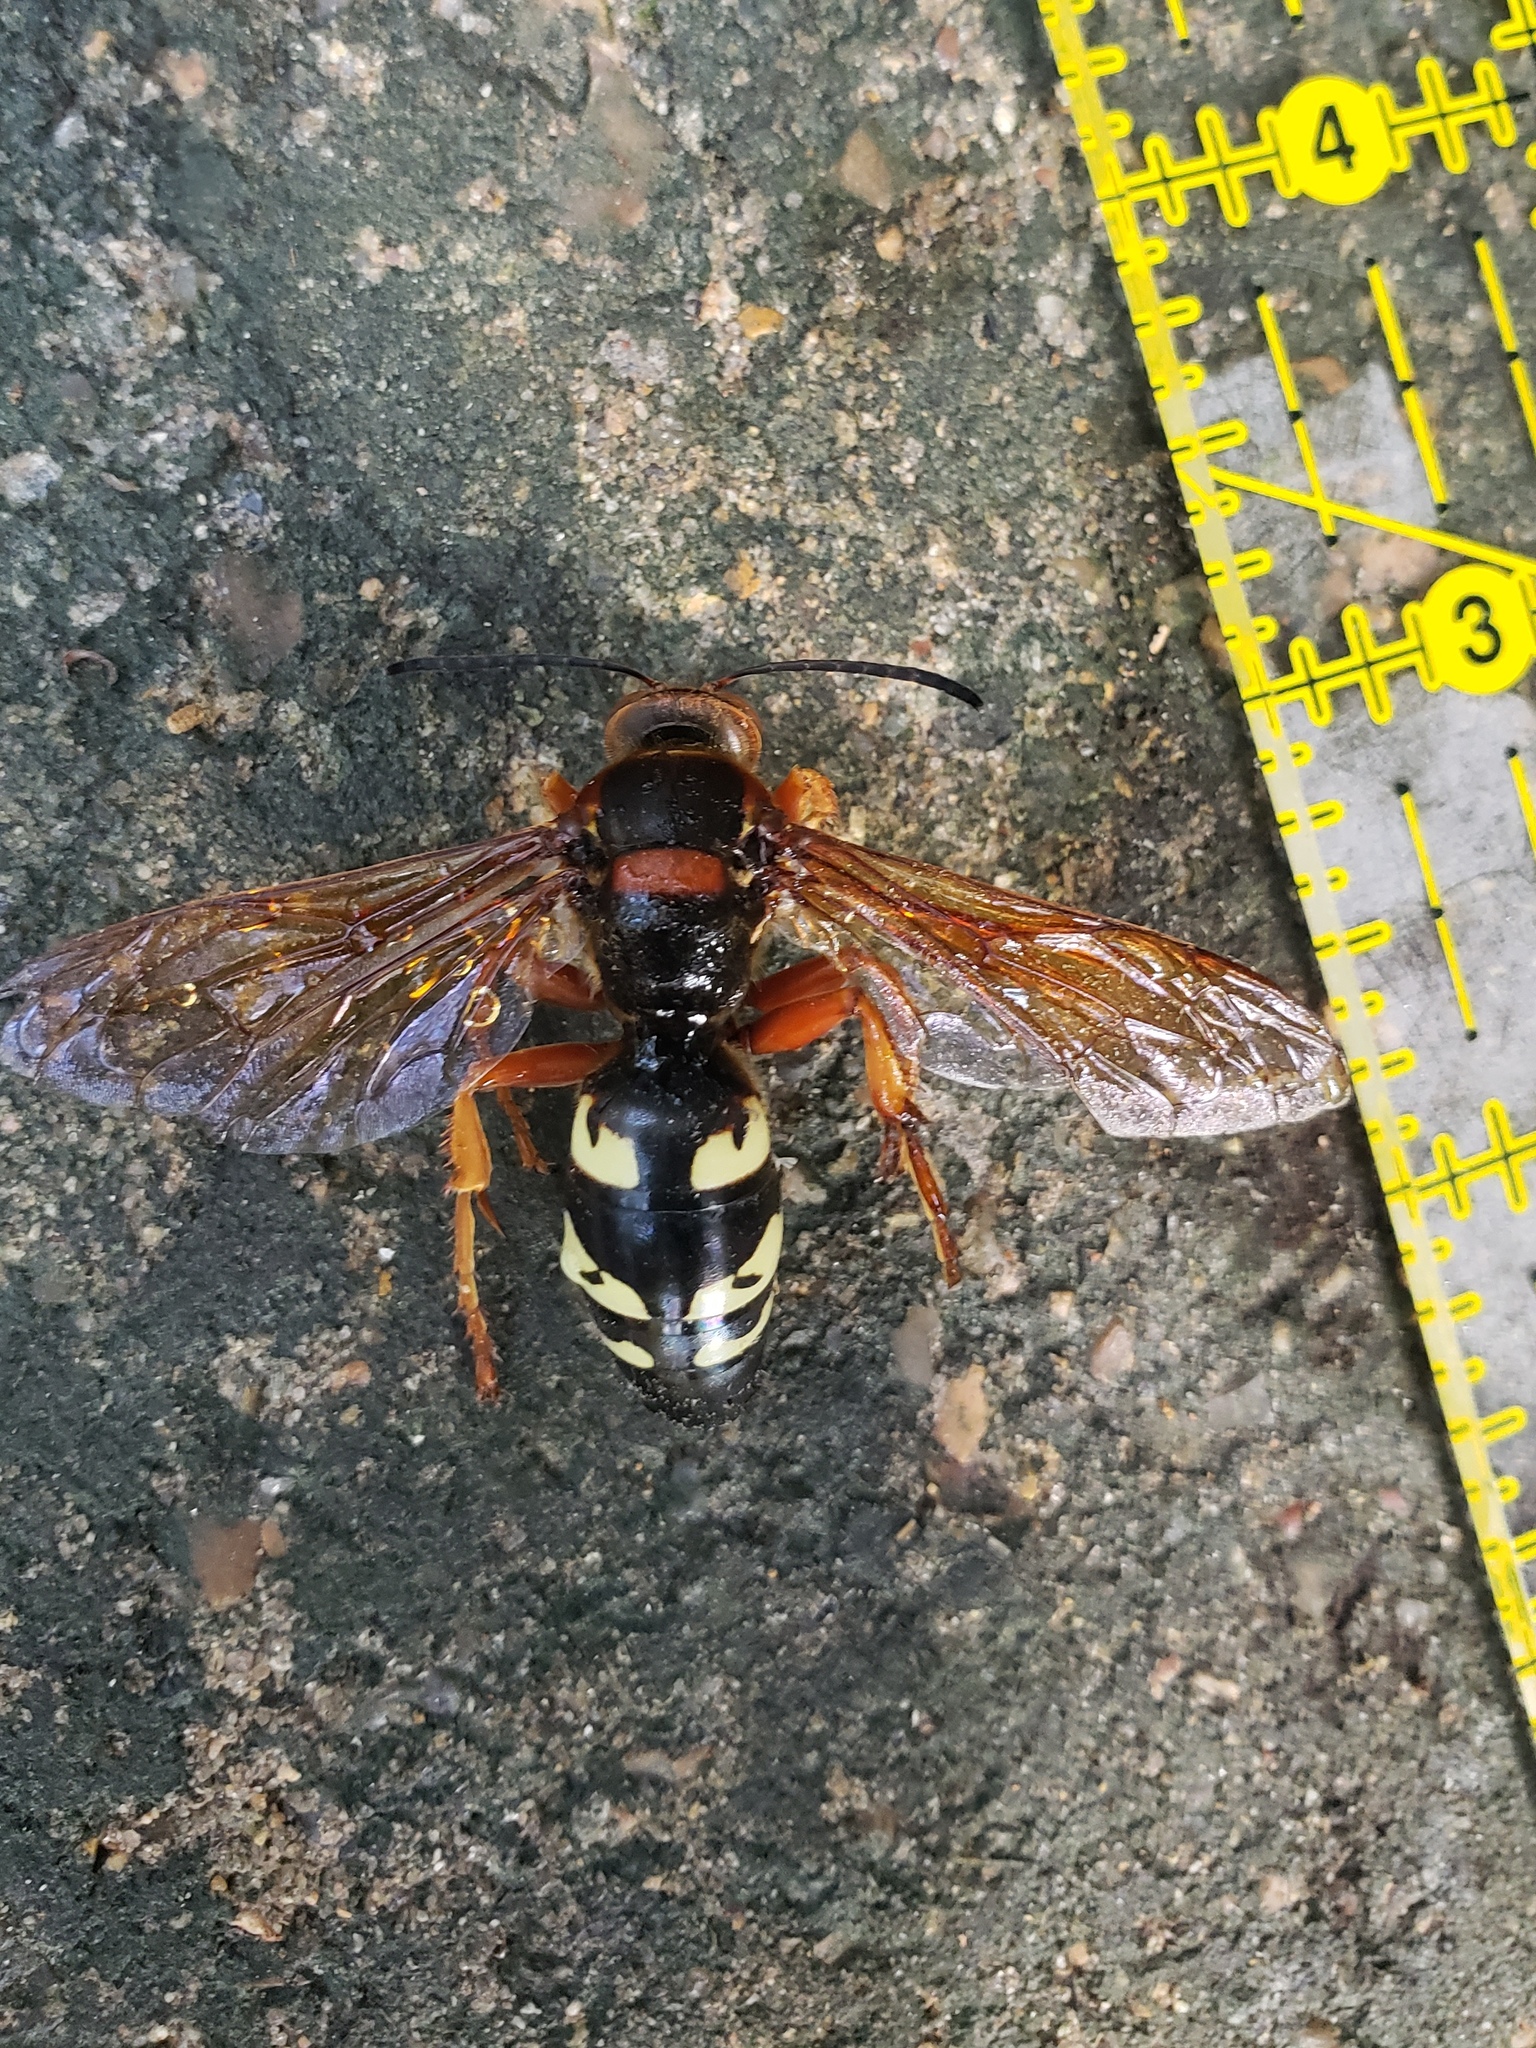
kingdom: Animalia
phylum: Arthropoda
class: Insecta
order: Hymenoptera
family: Crabronidae
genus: Sphecius
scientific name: Sphecius speciosus
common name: Cicada killer
